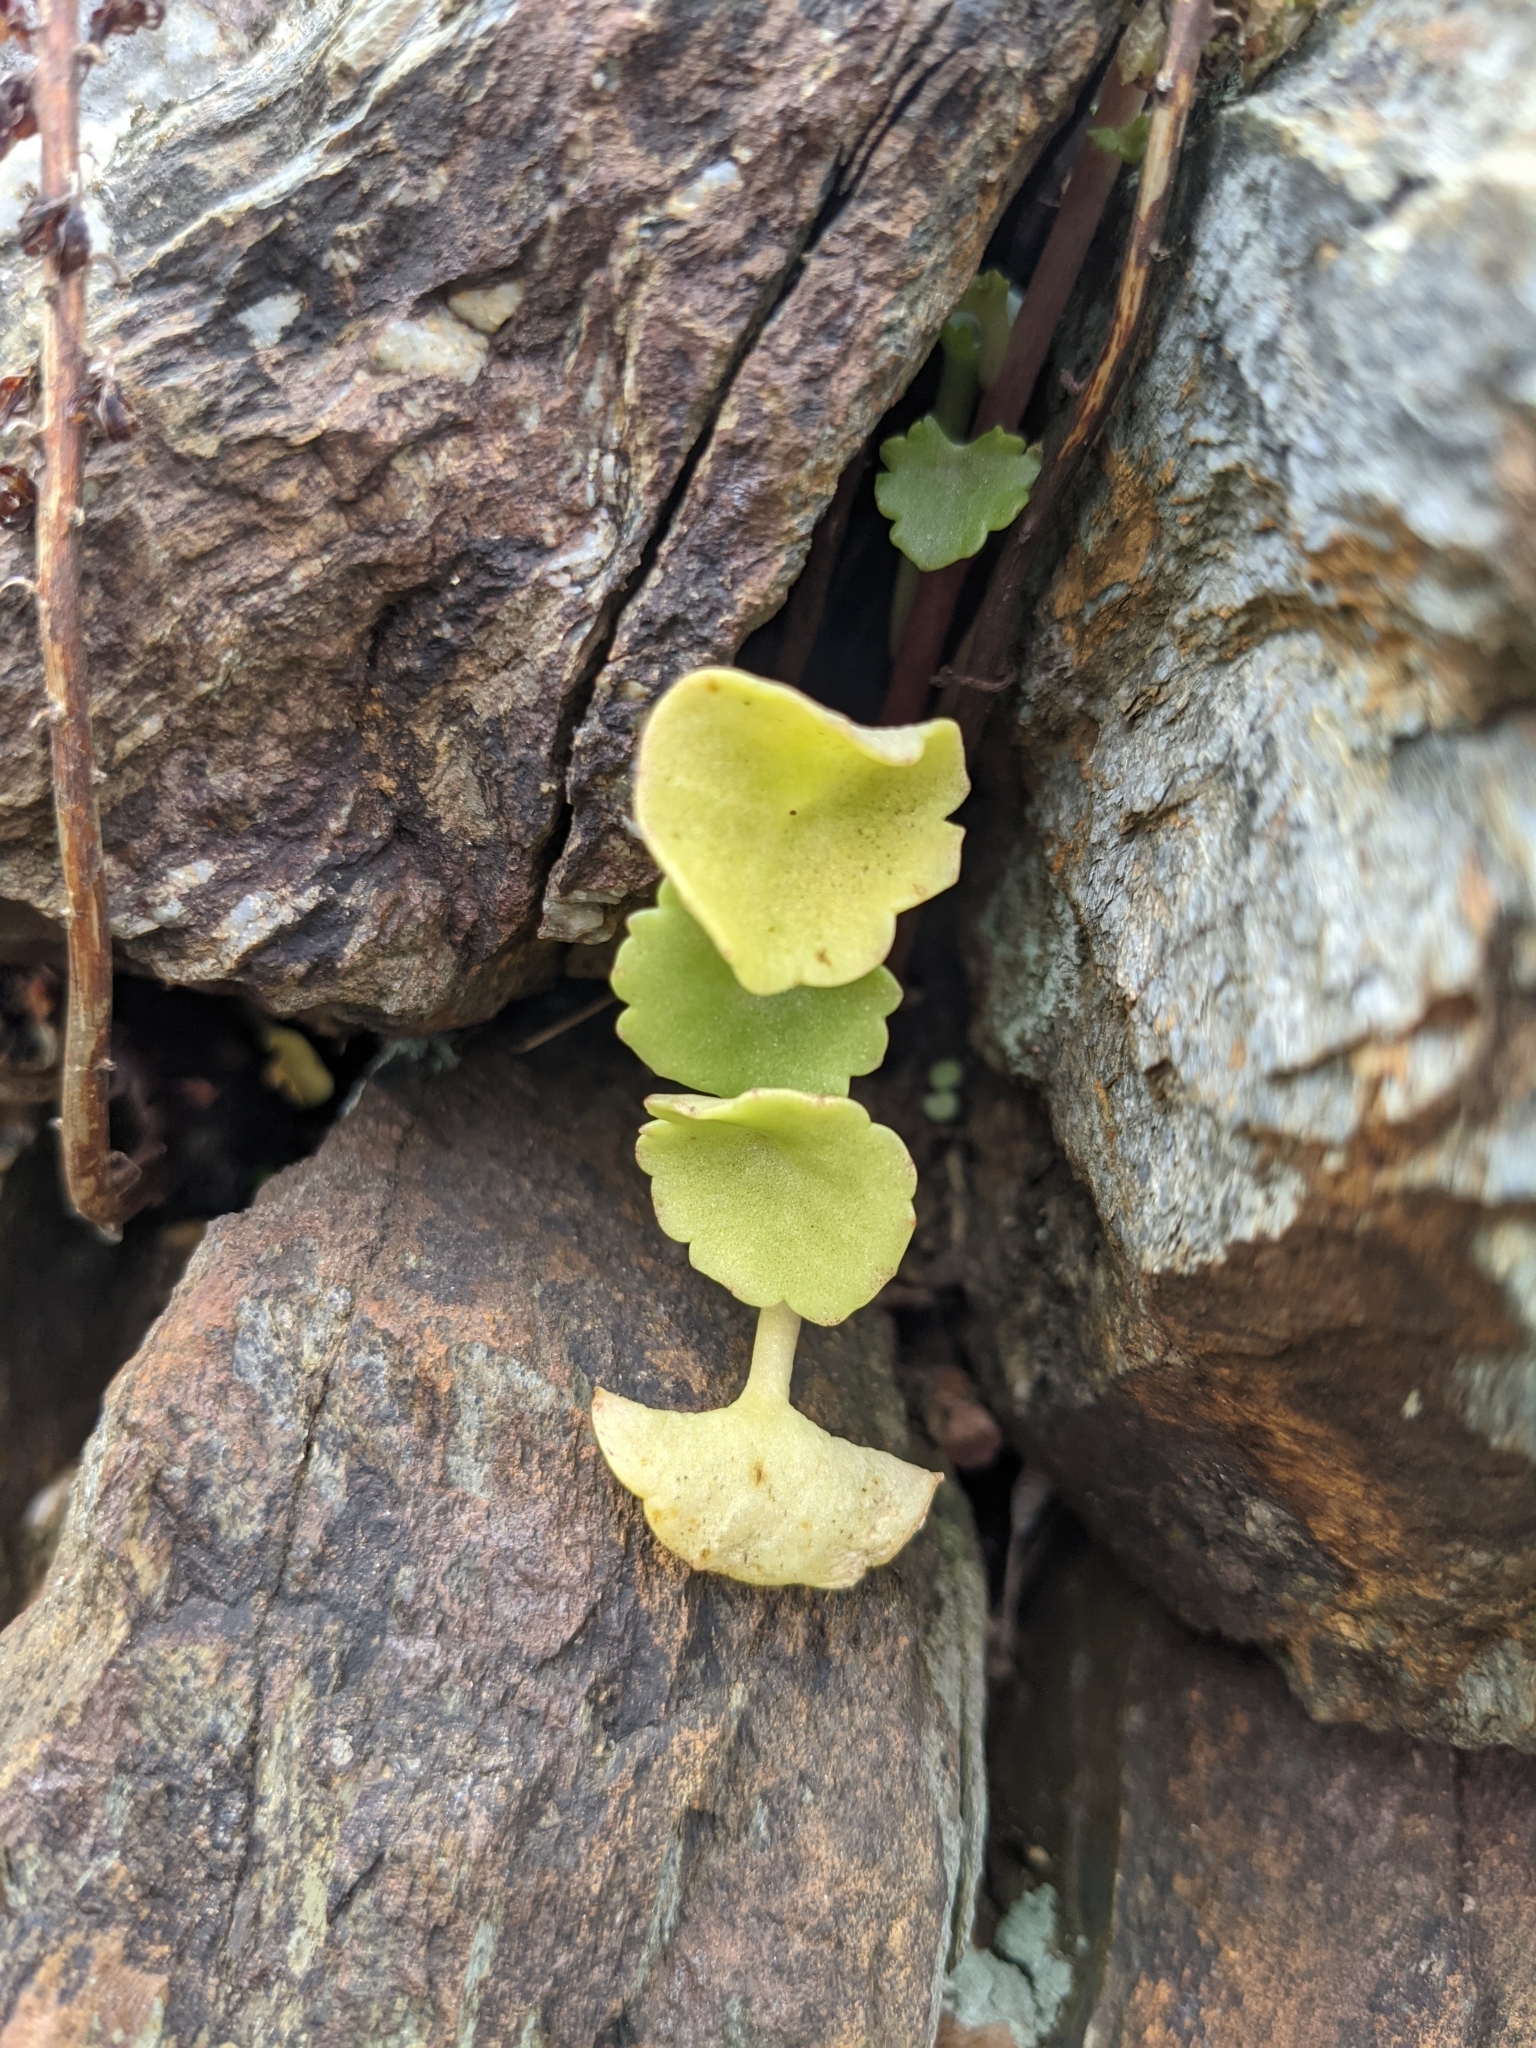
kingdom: Plantae
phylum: Tracheophyta
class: Magnoliopsida
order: Saxifragales
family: Crassulaceae
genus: Umbilicus
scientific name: Umbilicus rupestris
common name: Navelwort
